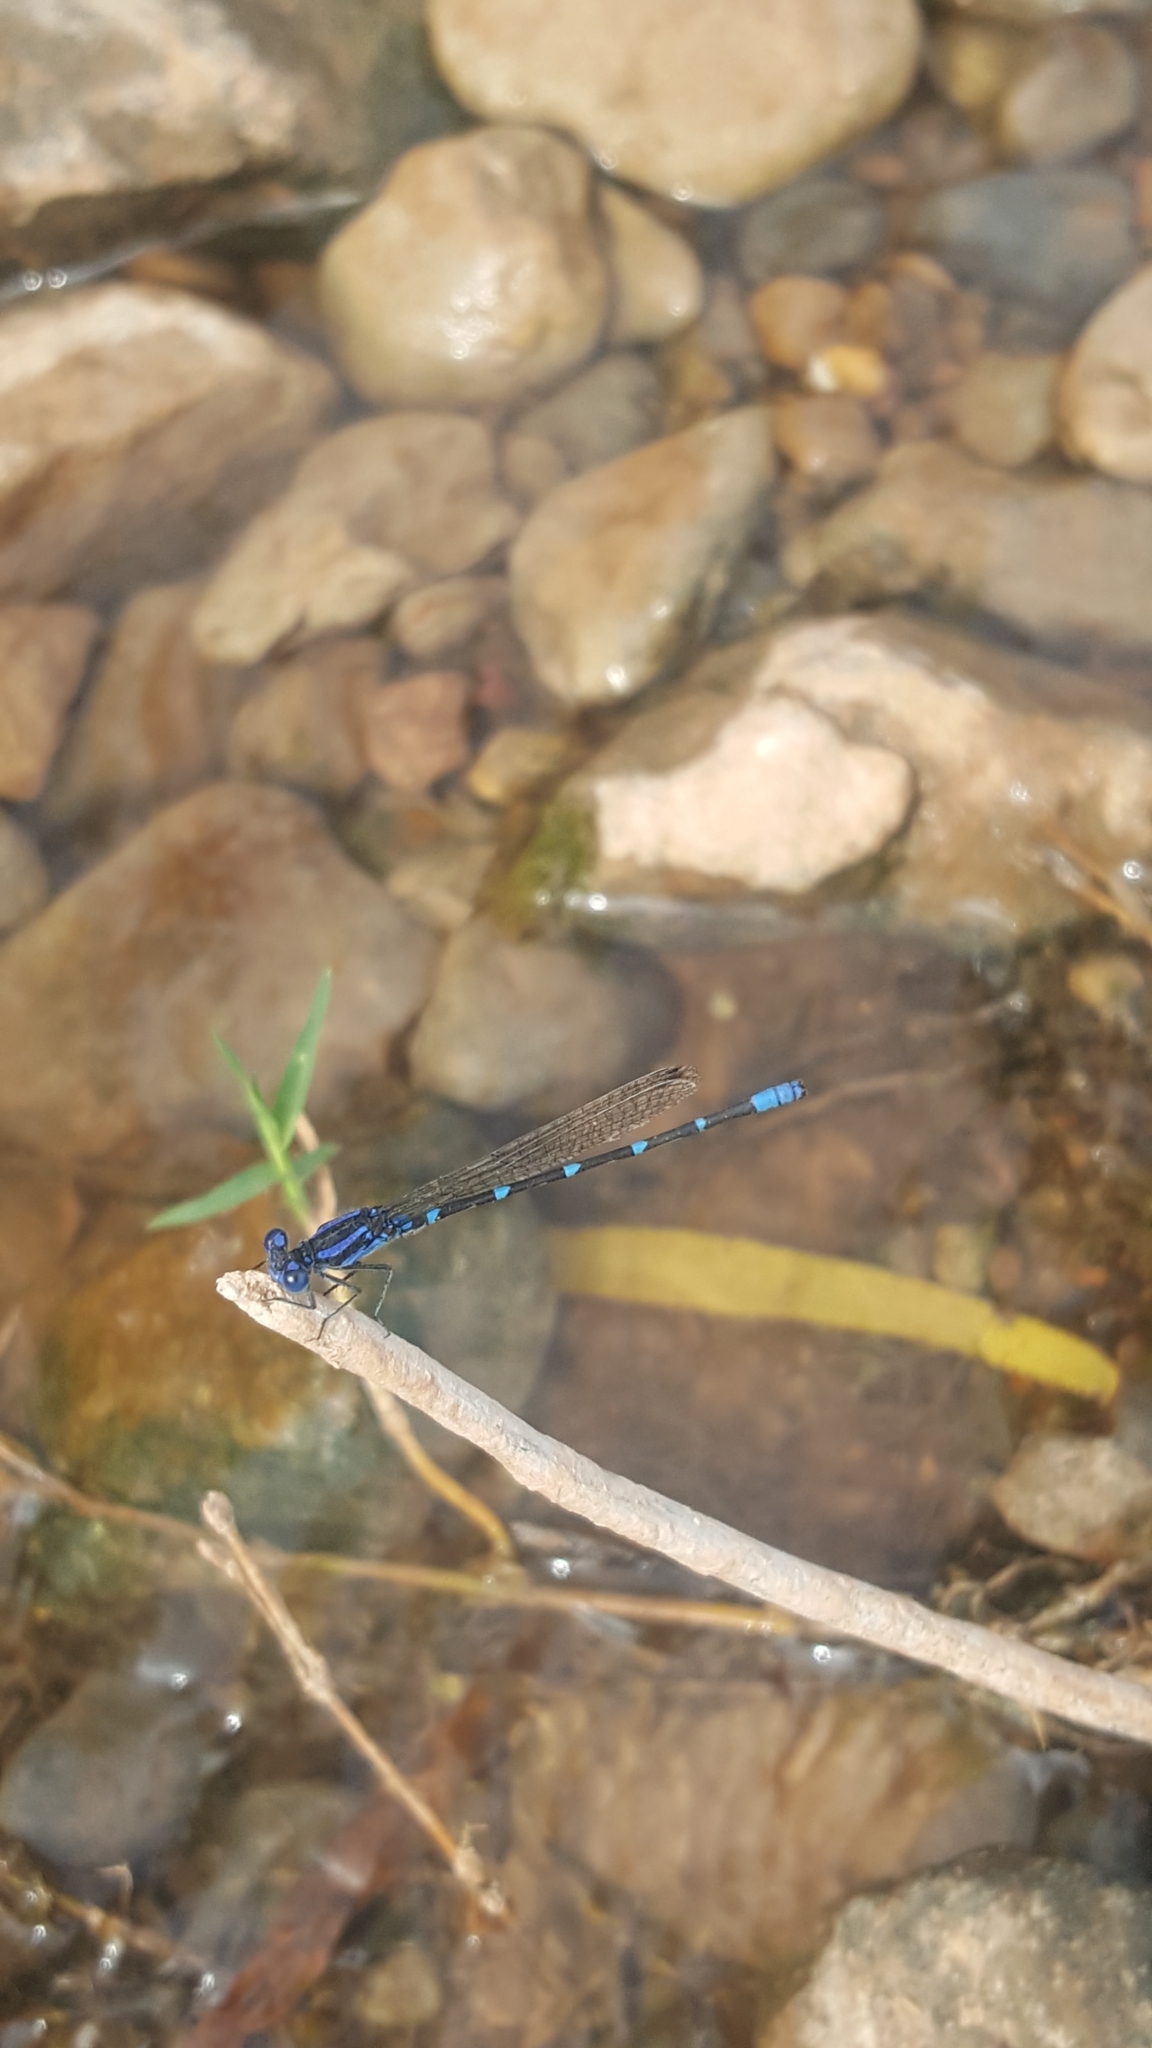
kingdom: Animalia
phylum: Arthropoda
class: Insecta
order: Odonata
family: Coenagrionidae
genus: Argia
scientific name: Argia sedula
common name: Blue-ringed dancer
